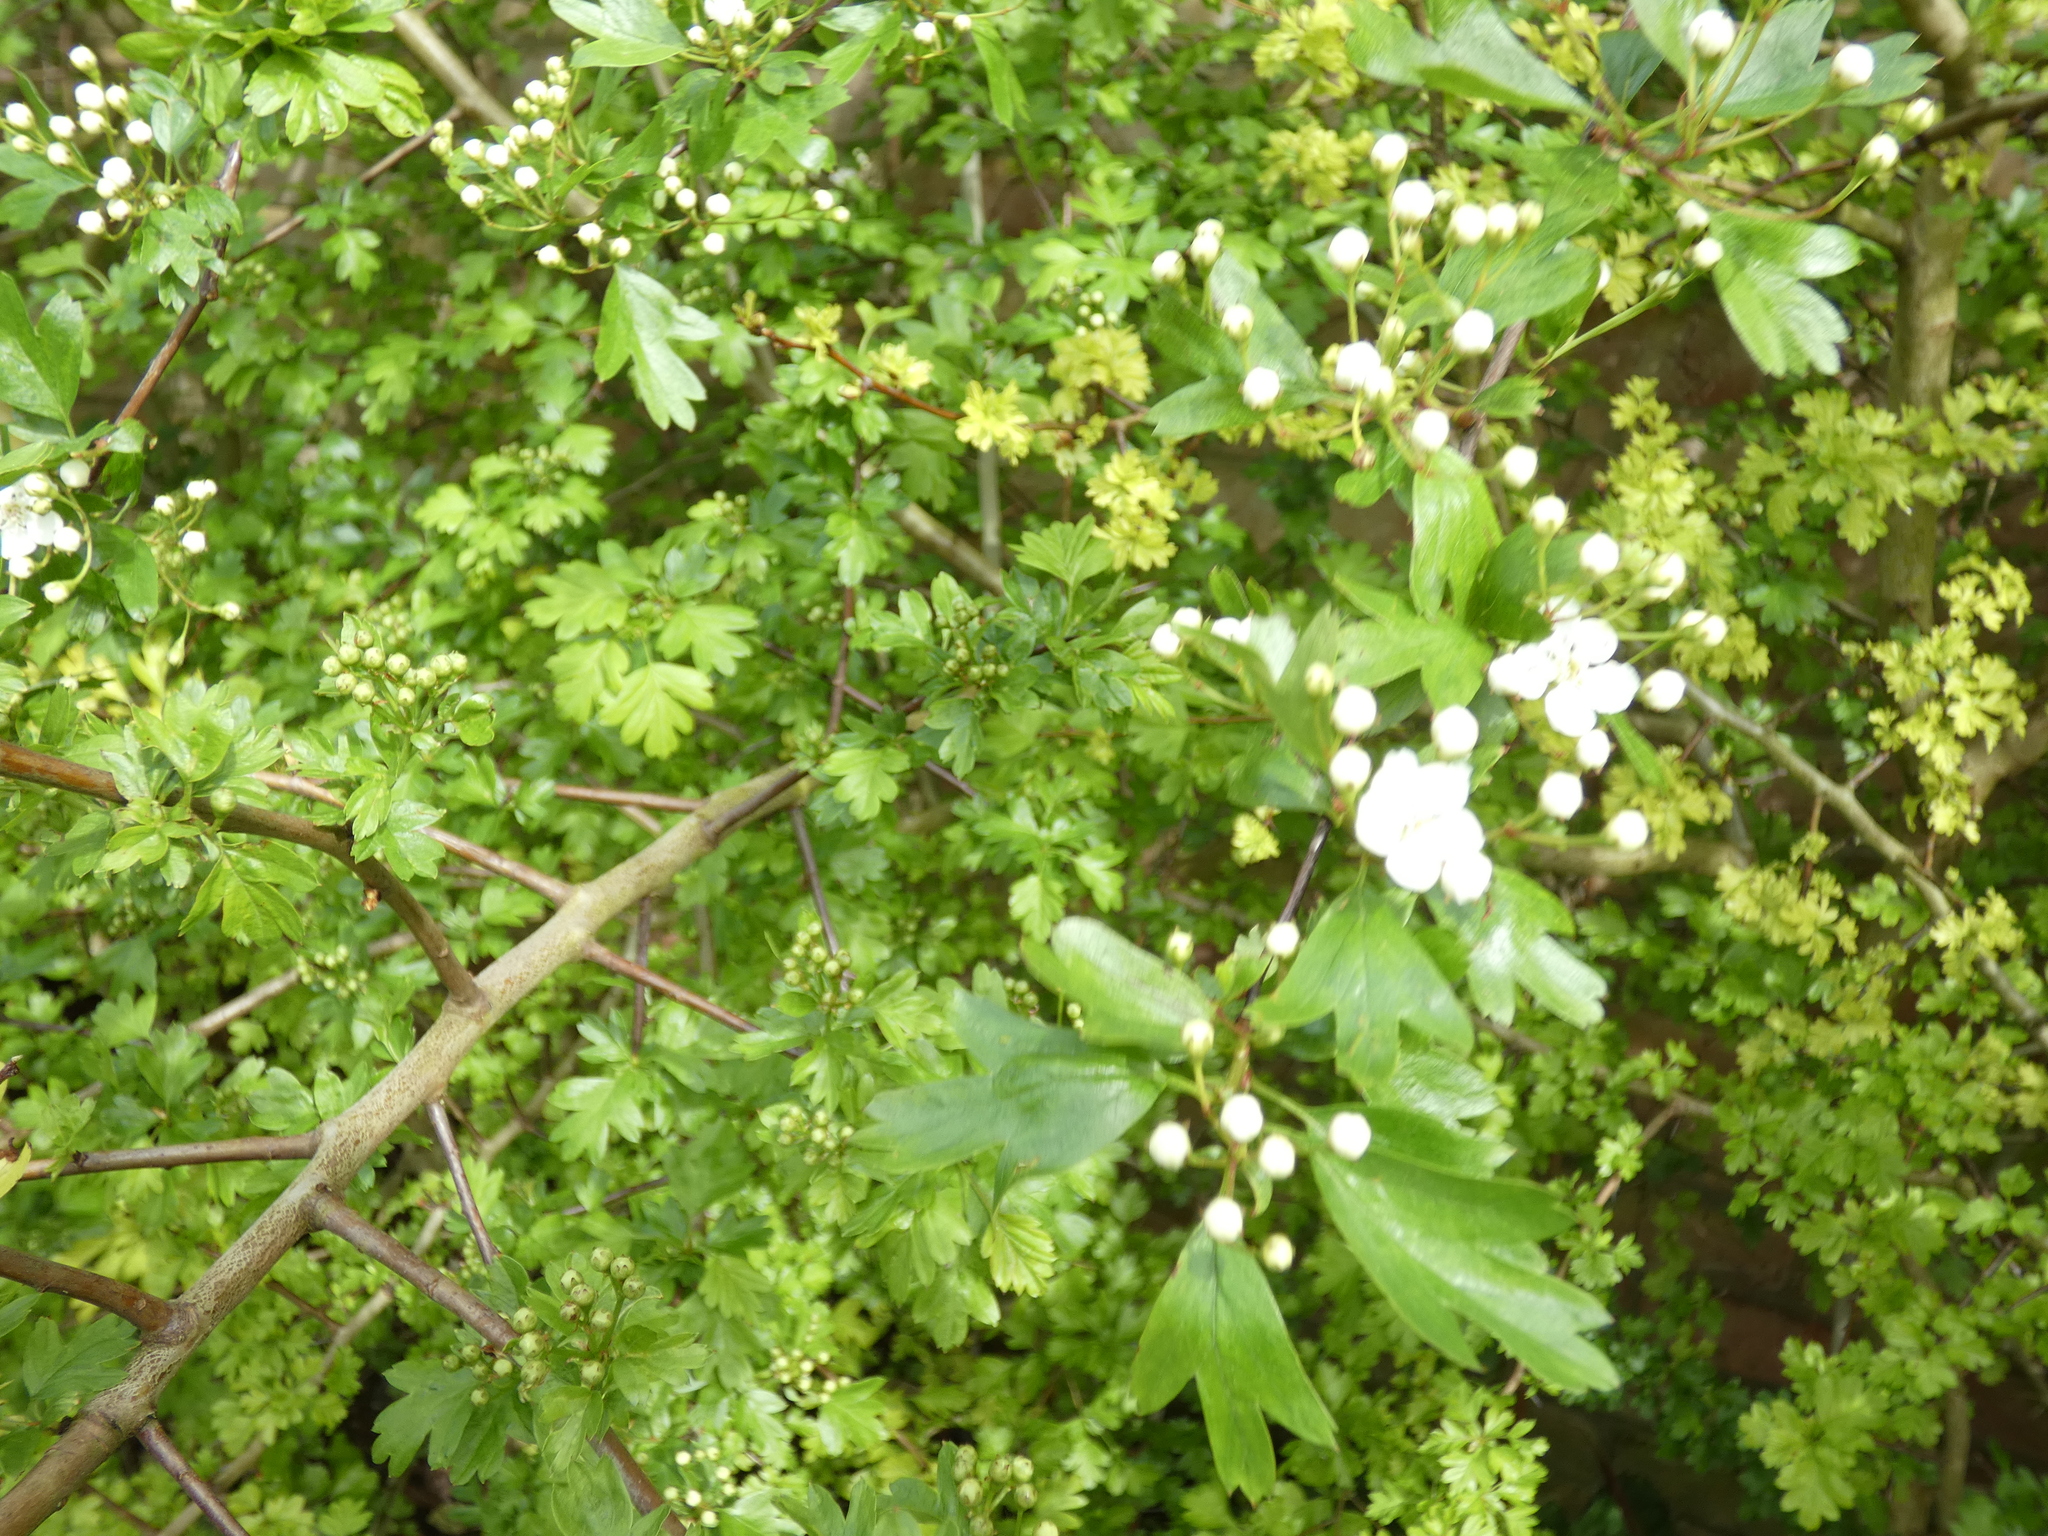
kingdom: Plantae
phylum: Tracheophyta
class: Magnoliopsida
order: Rosales
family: Rosaceae
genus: Crataegus
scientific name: Crataegus monogyna
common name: Hawthorn
